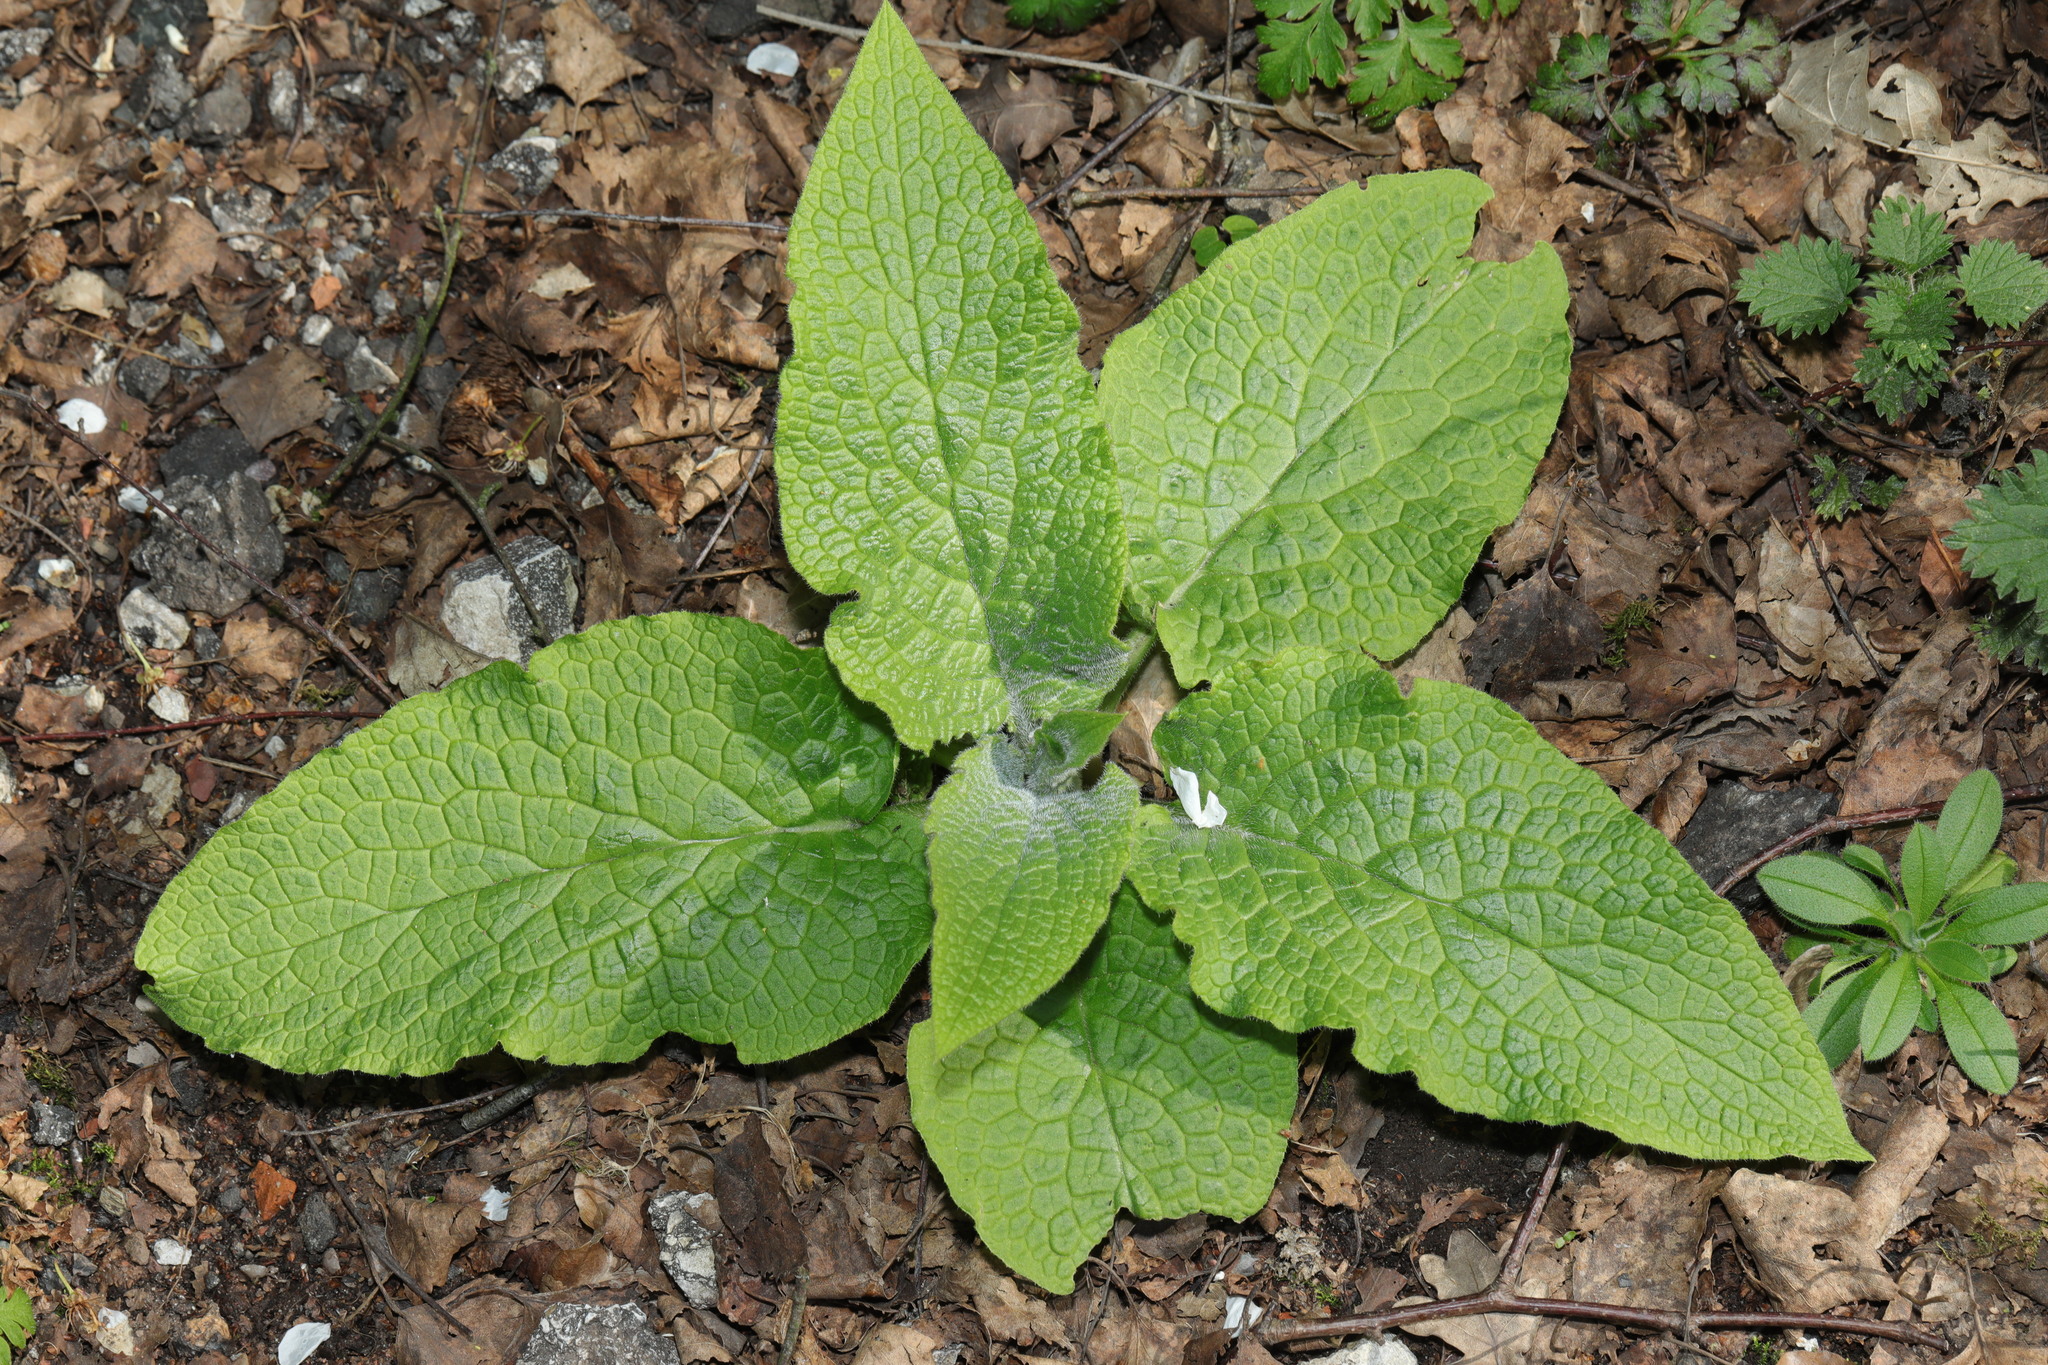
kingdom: Plantae
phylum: Tracheophyta
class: Magnoliopsida
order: Lamiales
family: Plantaginaceae
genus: Digitalis
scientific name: Digitalis purpurea
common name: Foxglove
